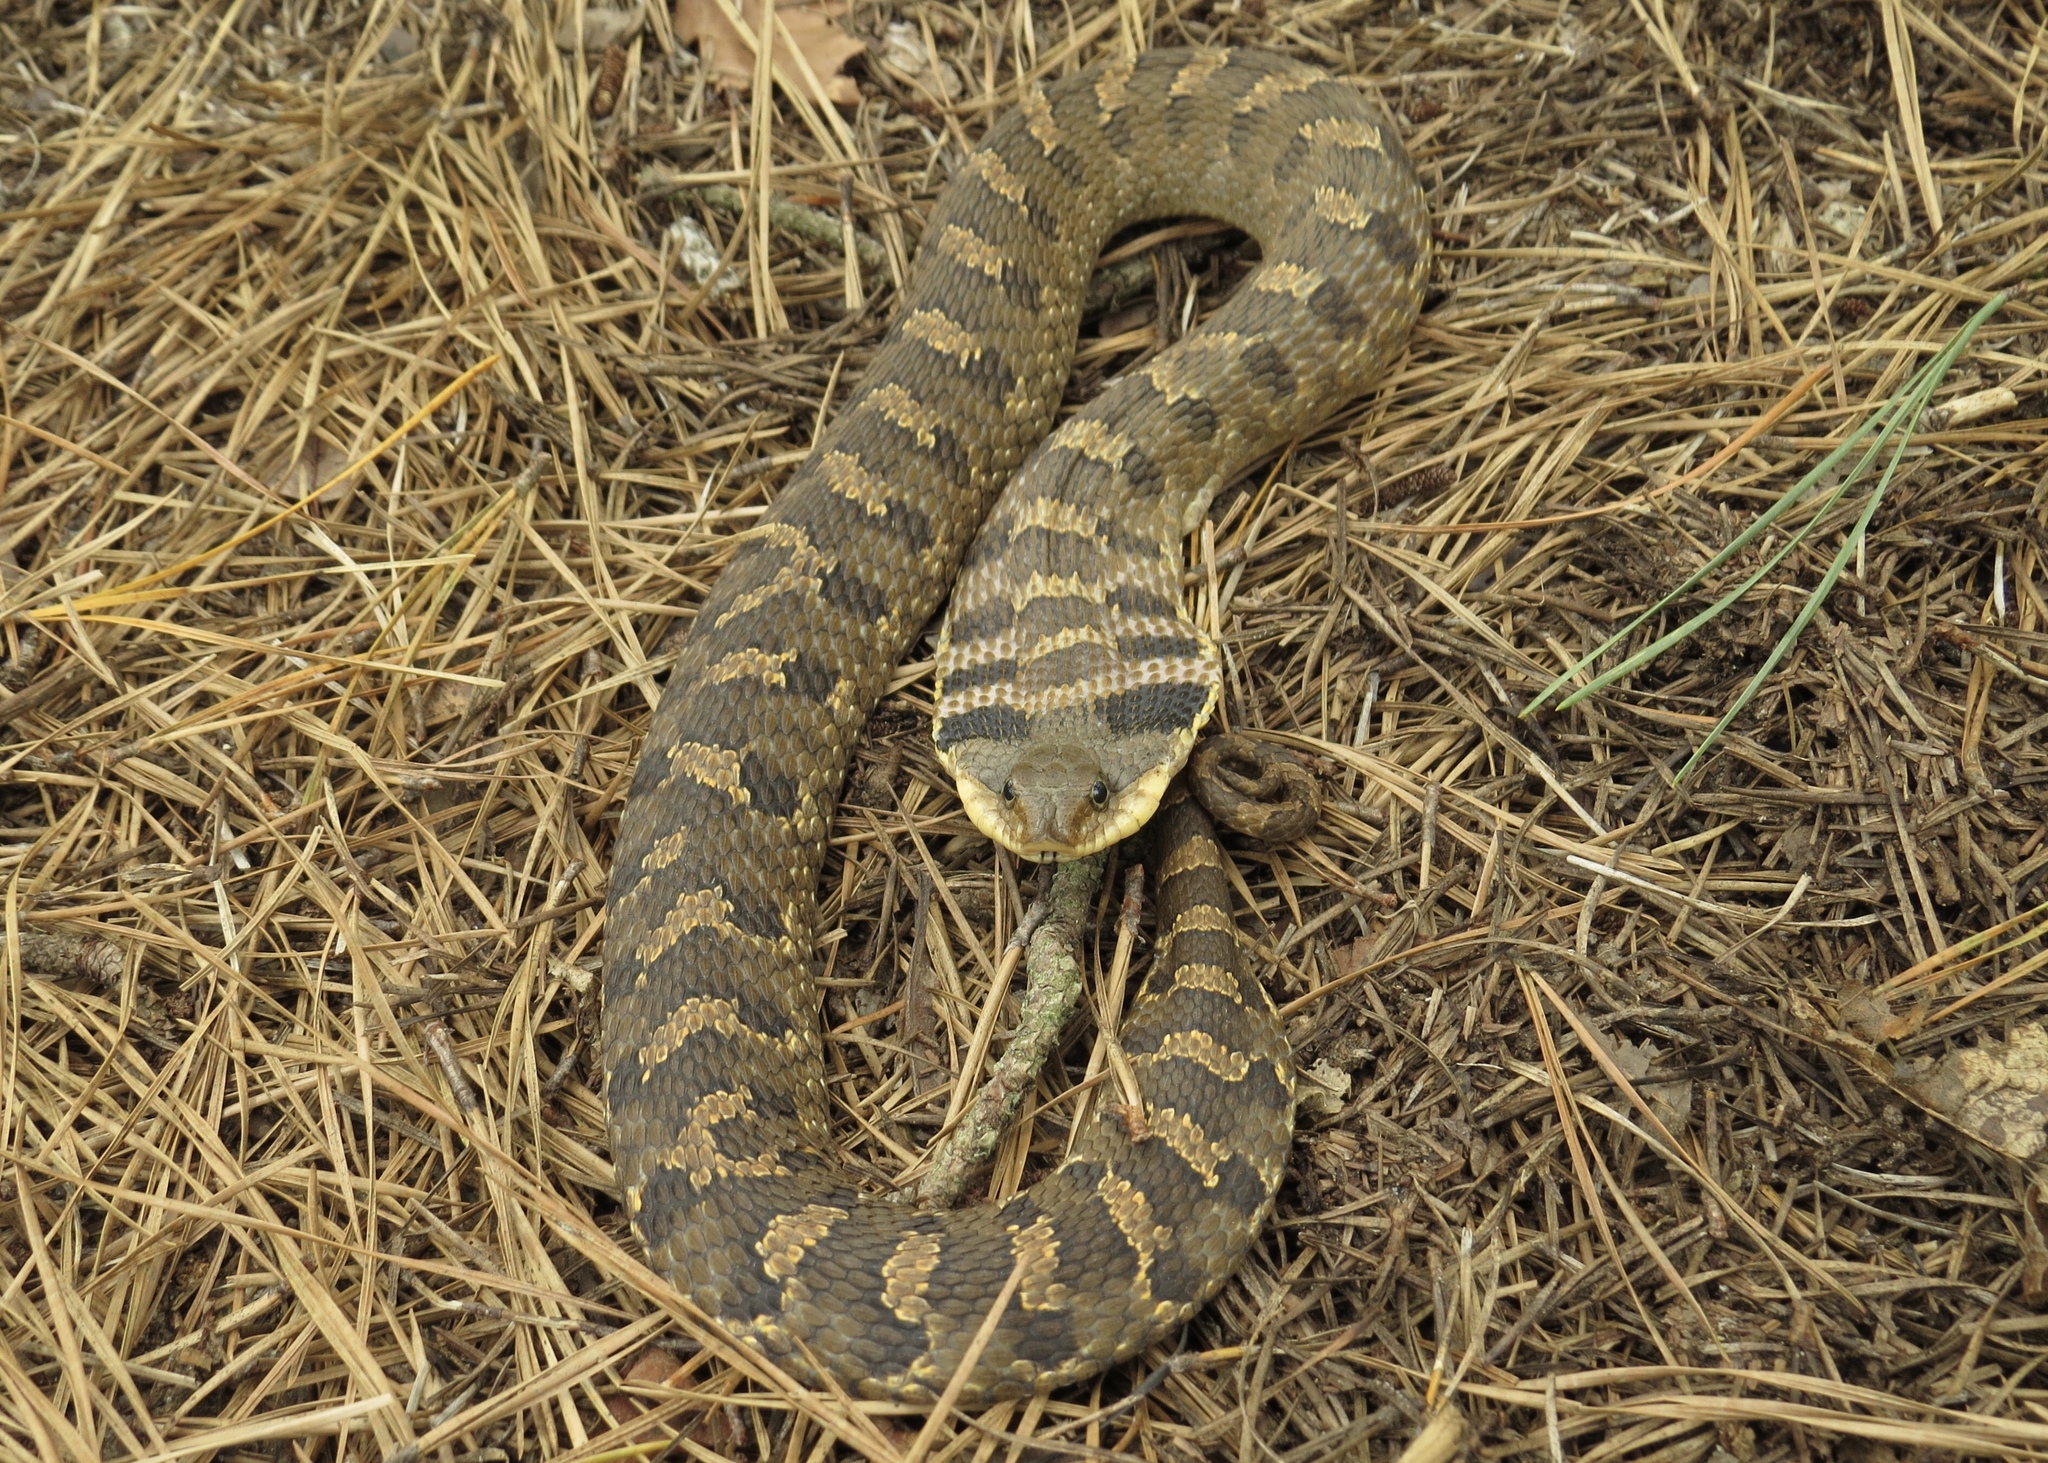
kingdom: Animalia
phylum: Chordata
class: Squamata
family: Colubridae
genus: Heterodon
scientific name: Heterodon platirhinos
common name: Eastern hognose snake
